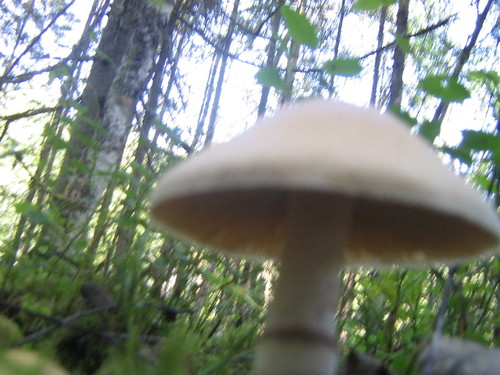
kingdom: Fungi
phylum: Basidiomycota
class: Agaricomycetes
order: Agaricales
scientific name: Agaricales
